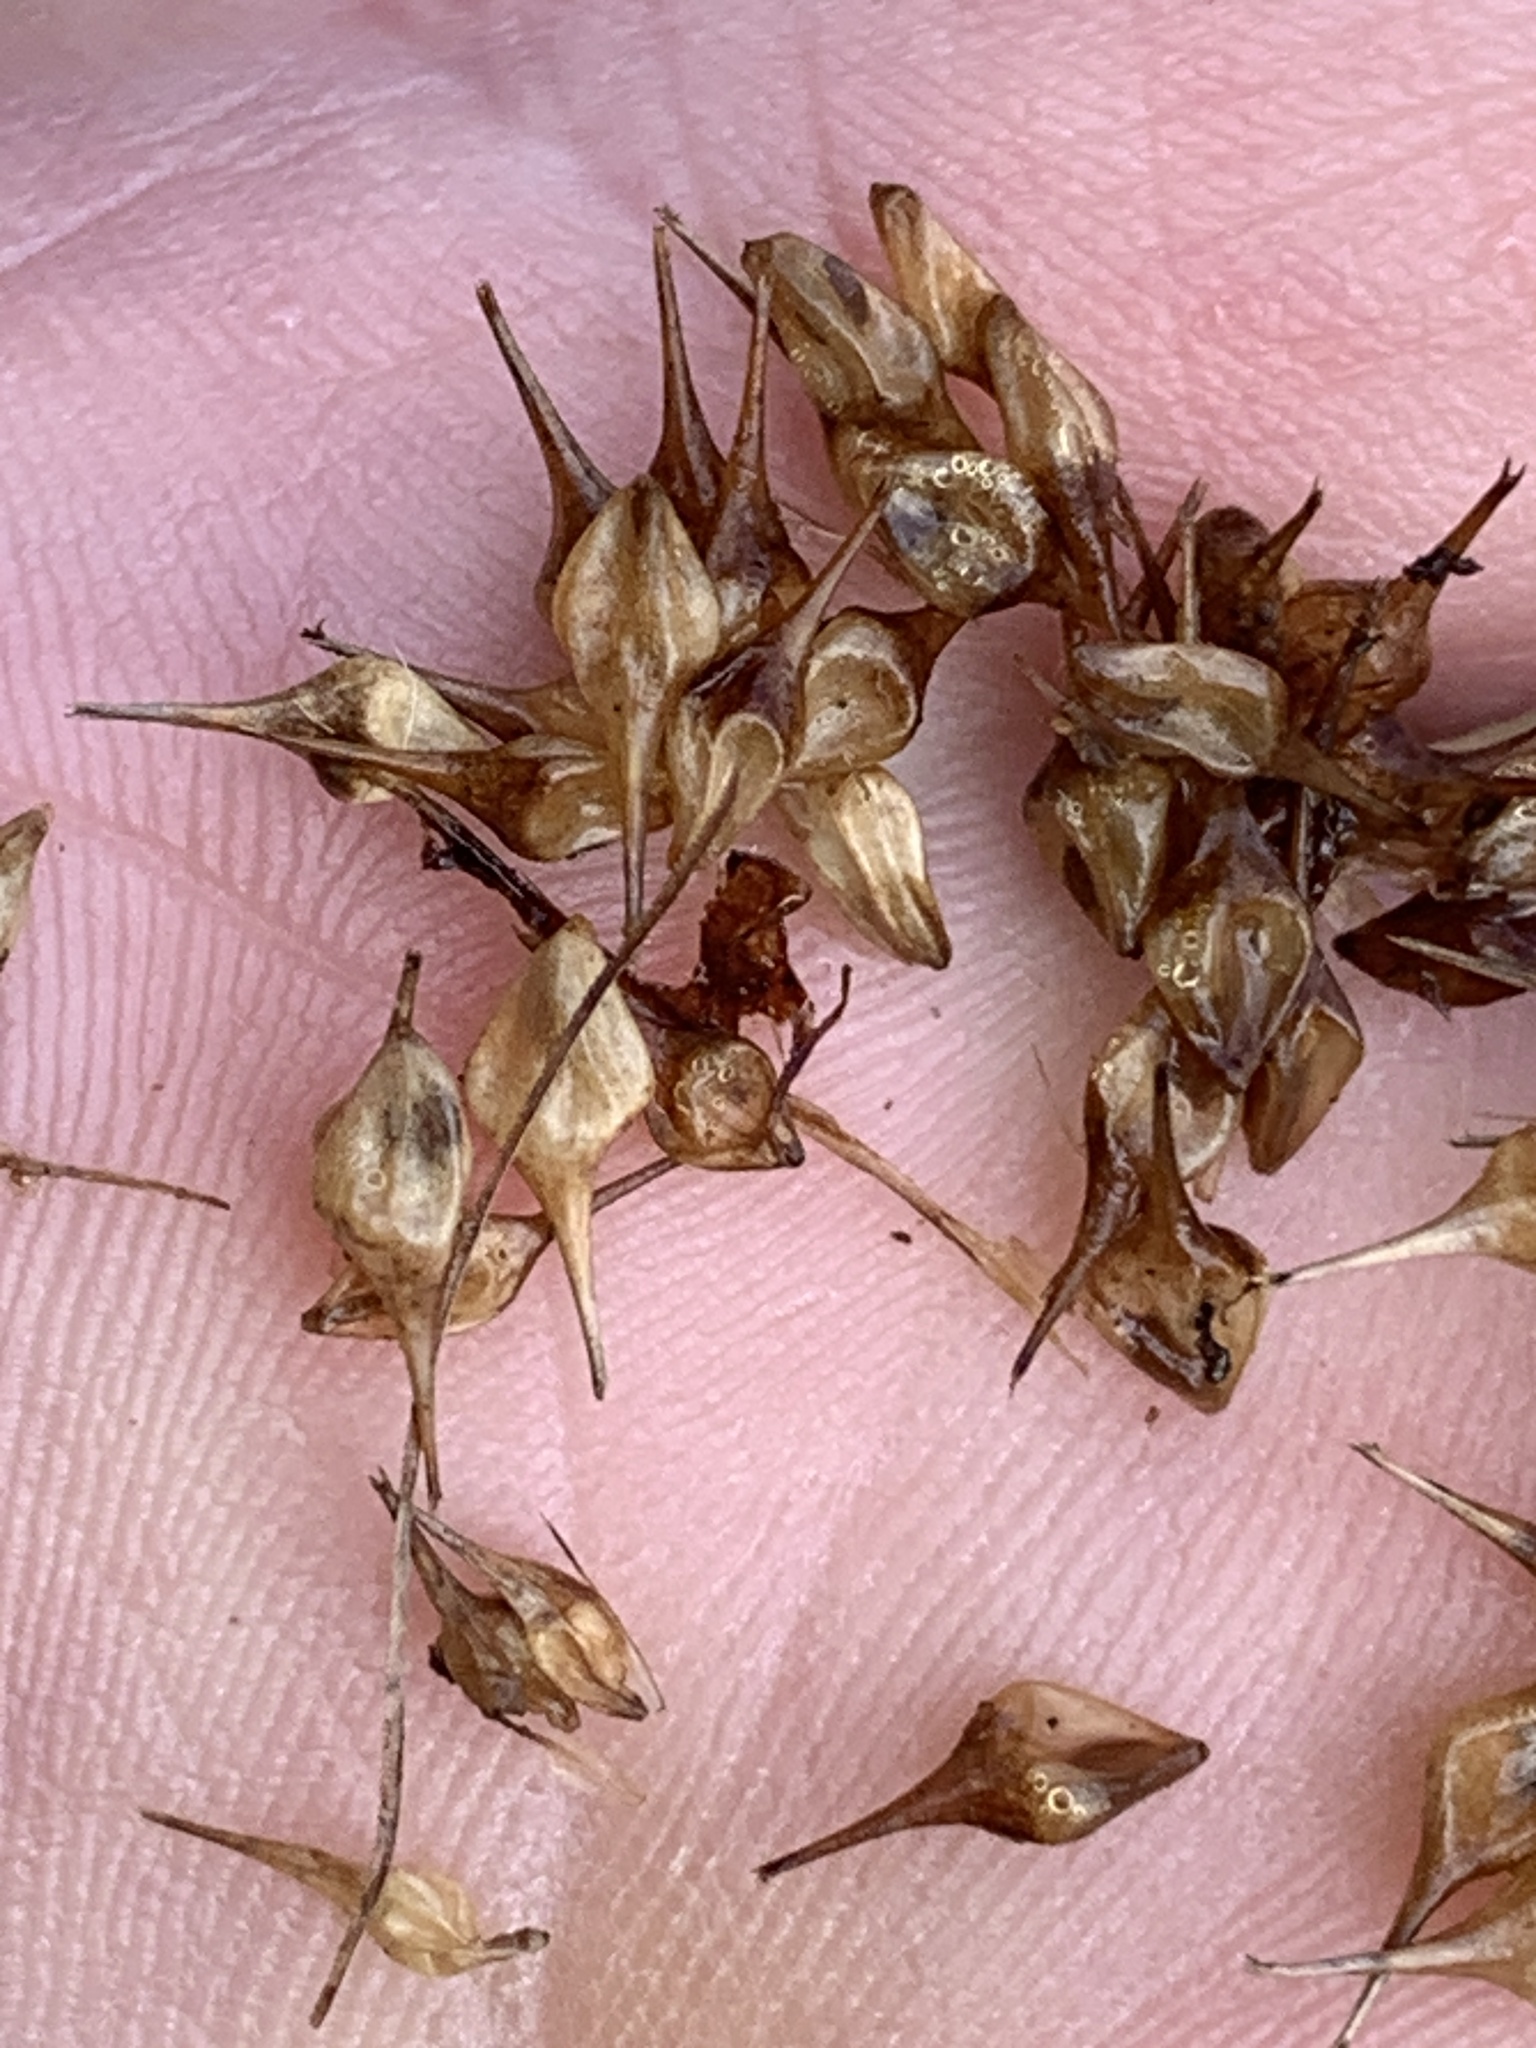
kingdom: Plantae
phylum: Tracheophyta
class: Liliopsida
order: Poales
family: Cyperaceae
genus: Carex
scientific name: Carex lurida
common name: Sallow sedge
